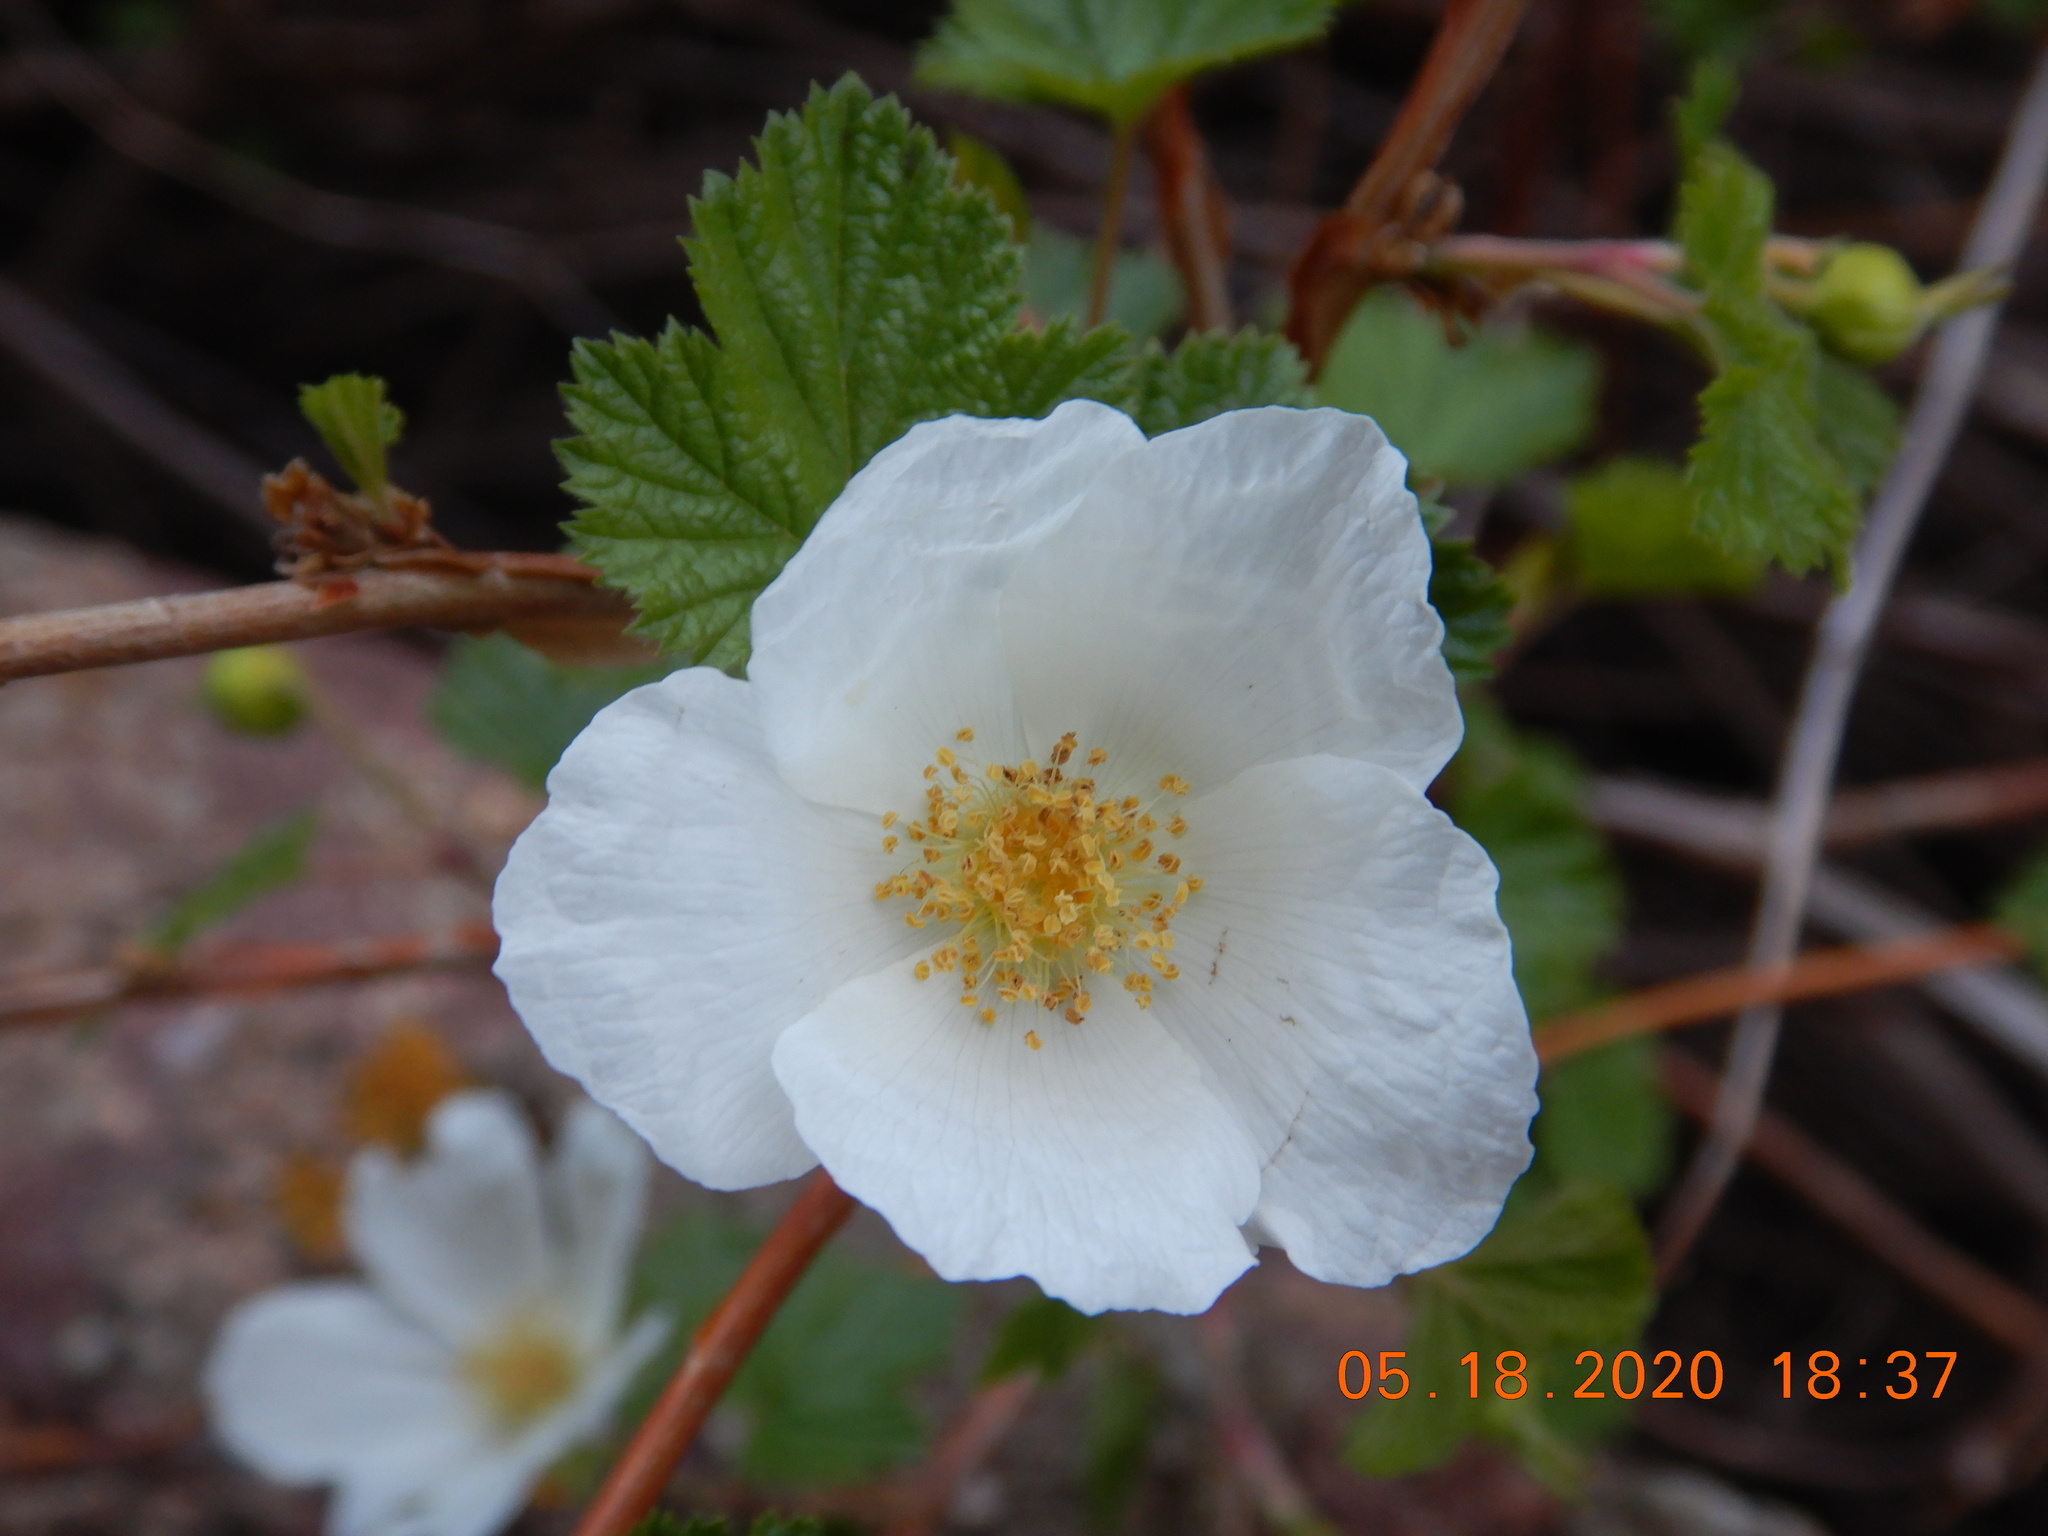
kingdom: Plantae
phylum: Tracheophyta
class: Magnoliopsida
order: Rosales
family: Rosaceae
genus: Rubus
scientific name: Rubus deliciosus
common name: Rocky mountain raspberry
